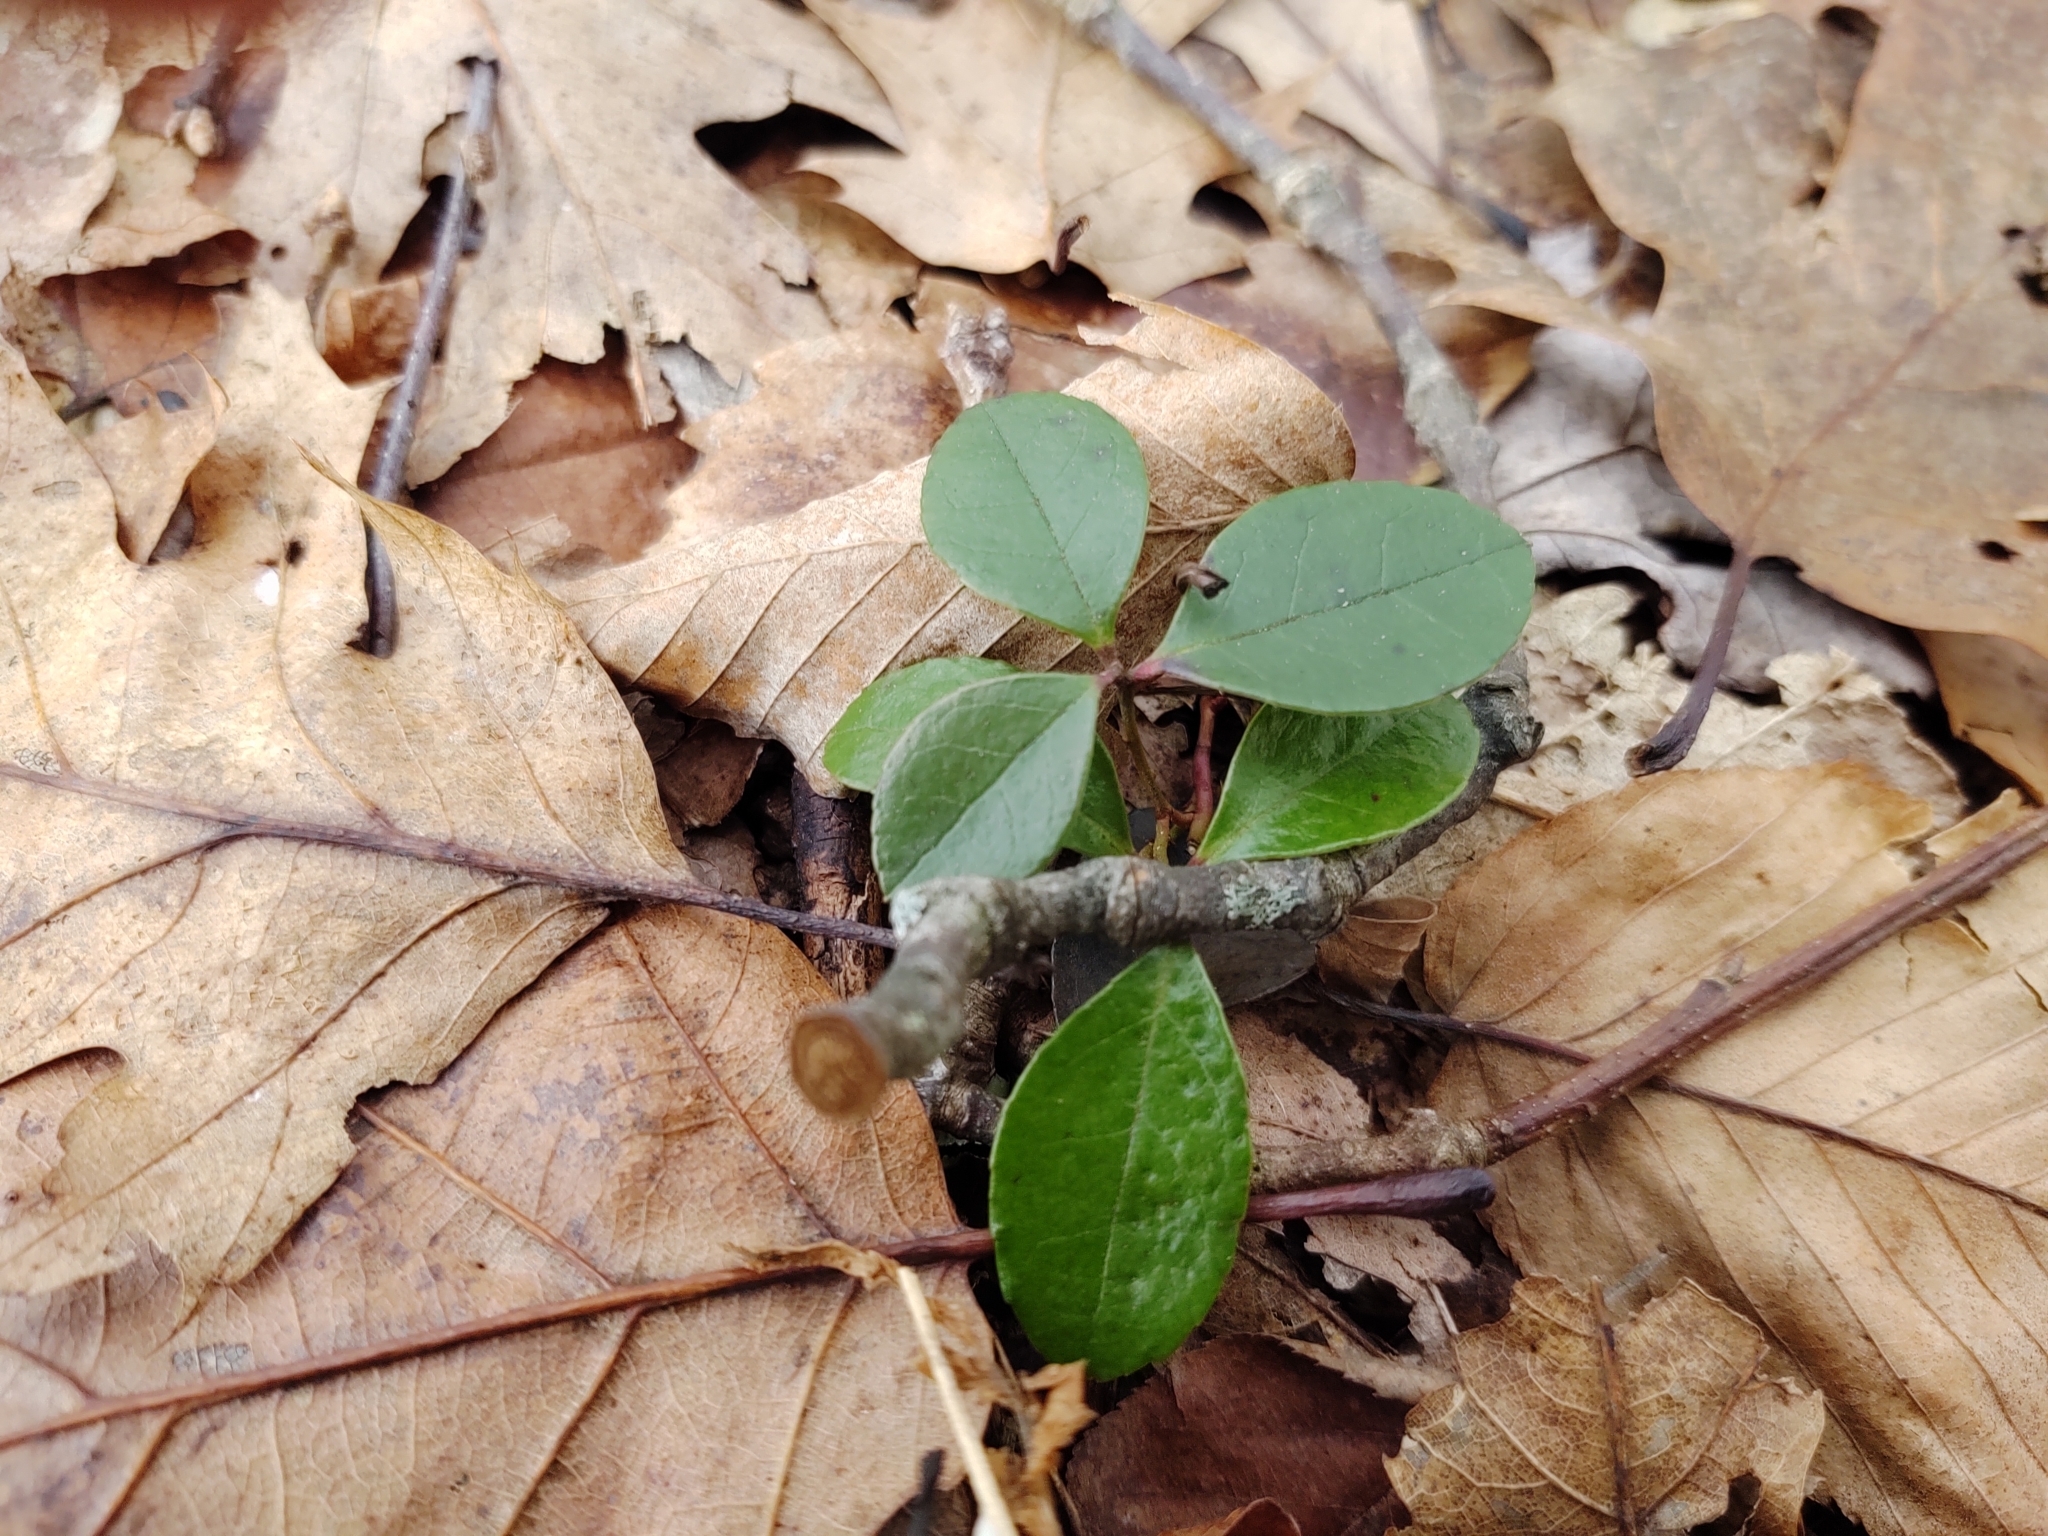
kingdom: Plantae
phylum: Tracheophyta
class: Magnoliopsida
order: Ericales
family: Ericaceae
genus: Gaultheria
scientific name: Gaultheria procumbens
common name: Checkerberry
